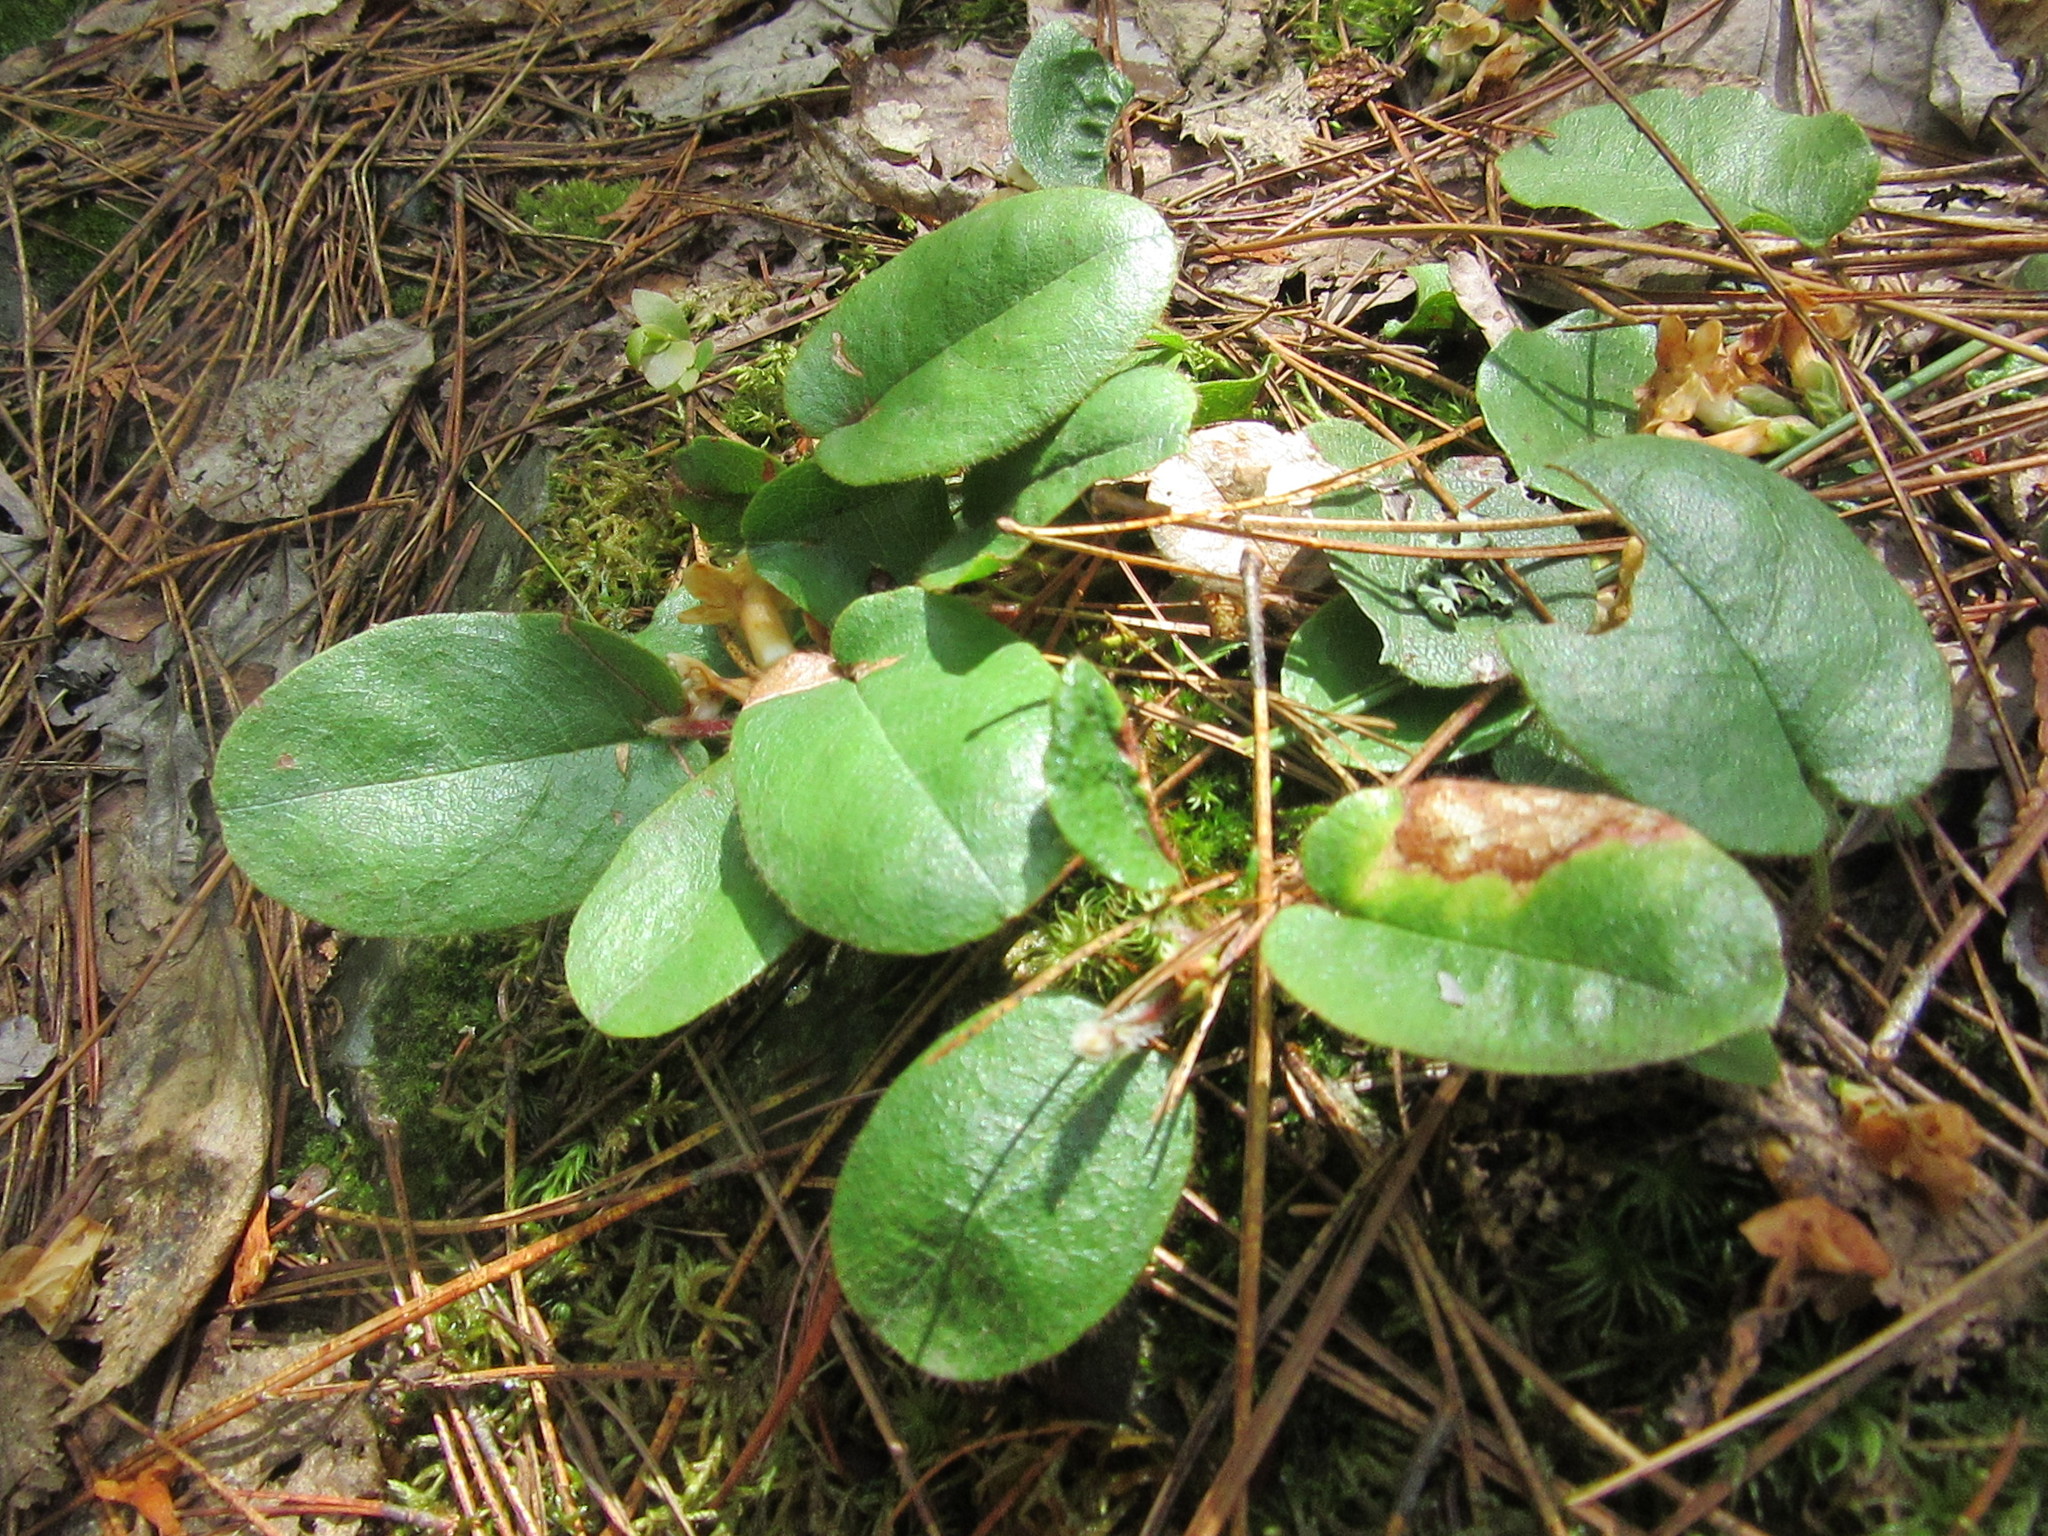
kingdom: Plantae
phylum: Tracheophyta
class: Magnoliopsida
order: Ericales
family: Ericaceae
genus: Epigaea
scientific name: Epigaea repens
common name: Gravelroot
